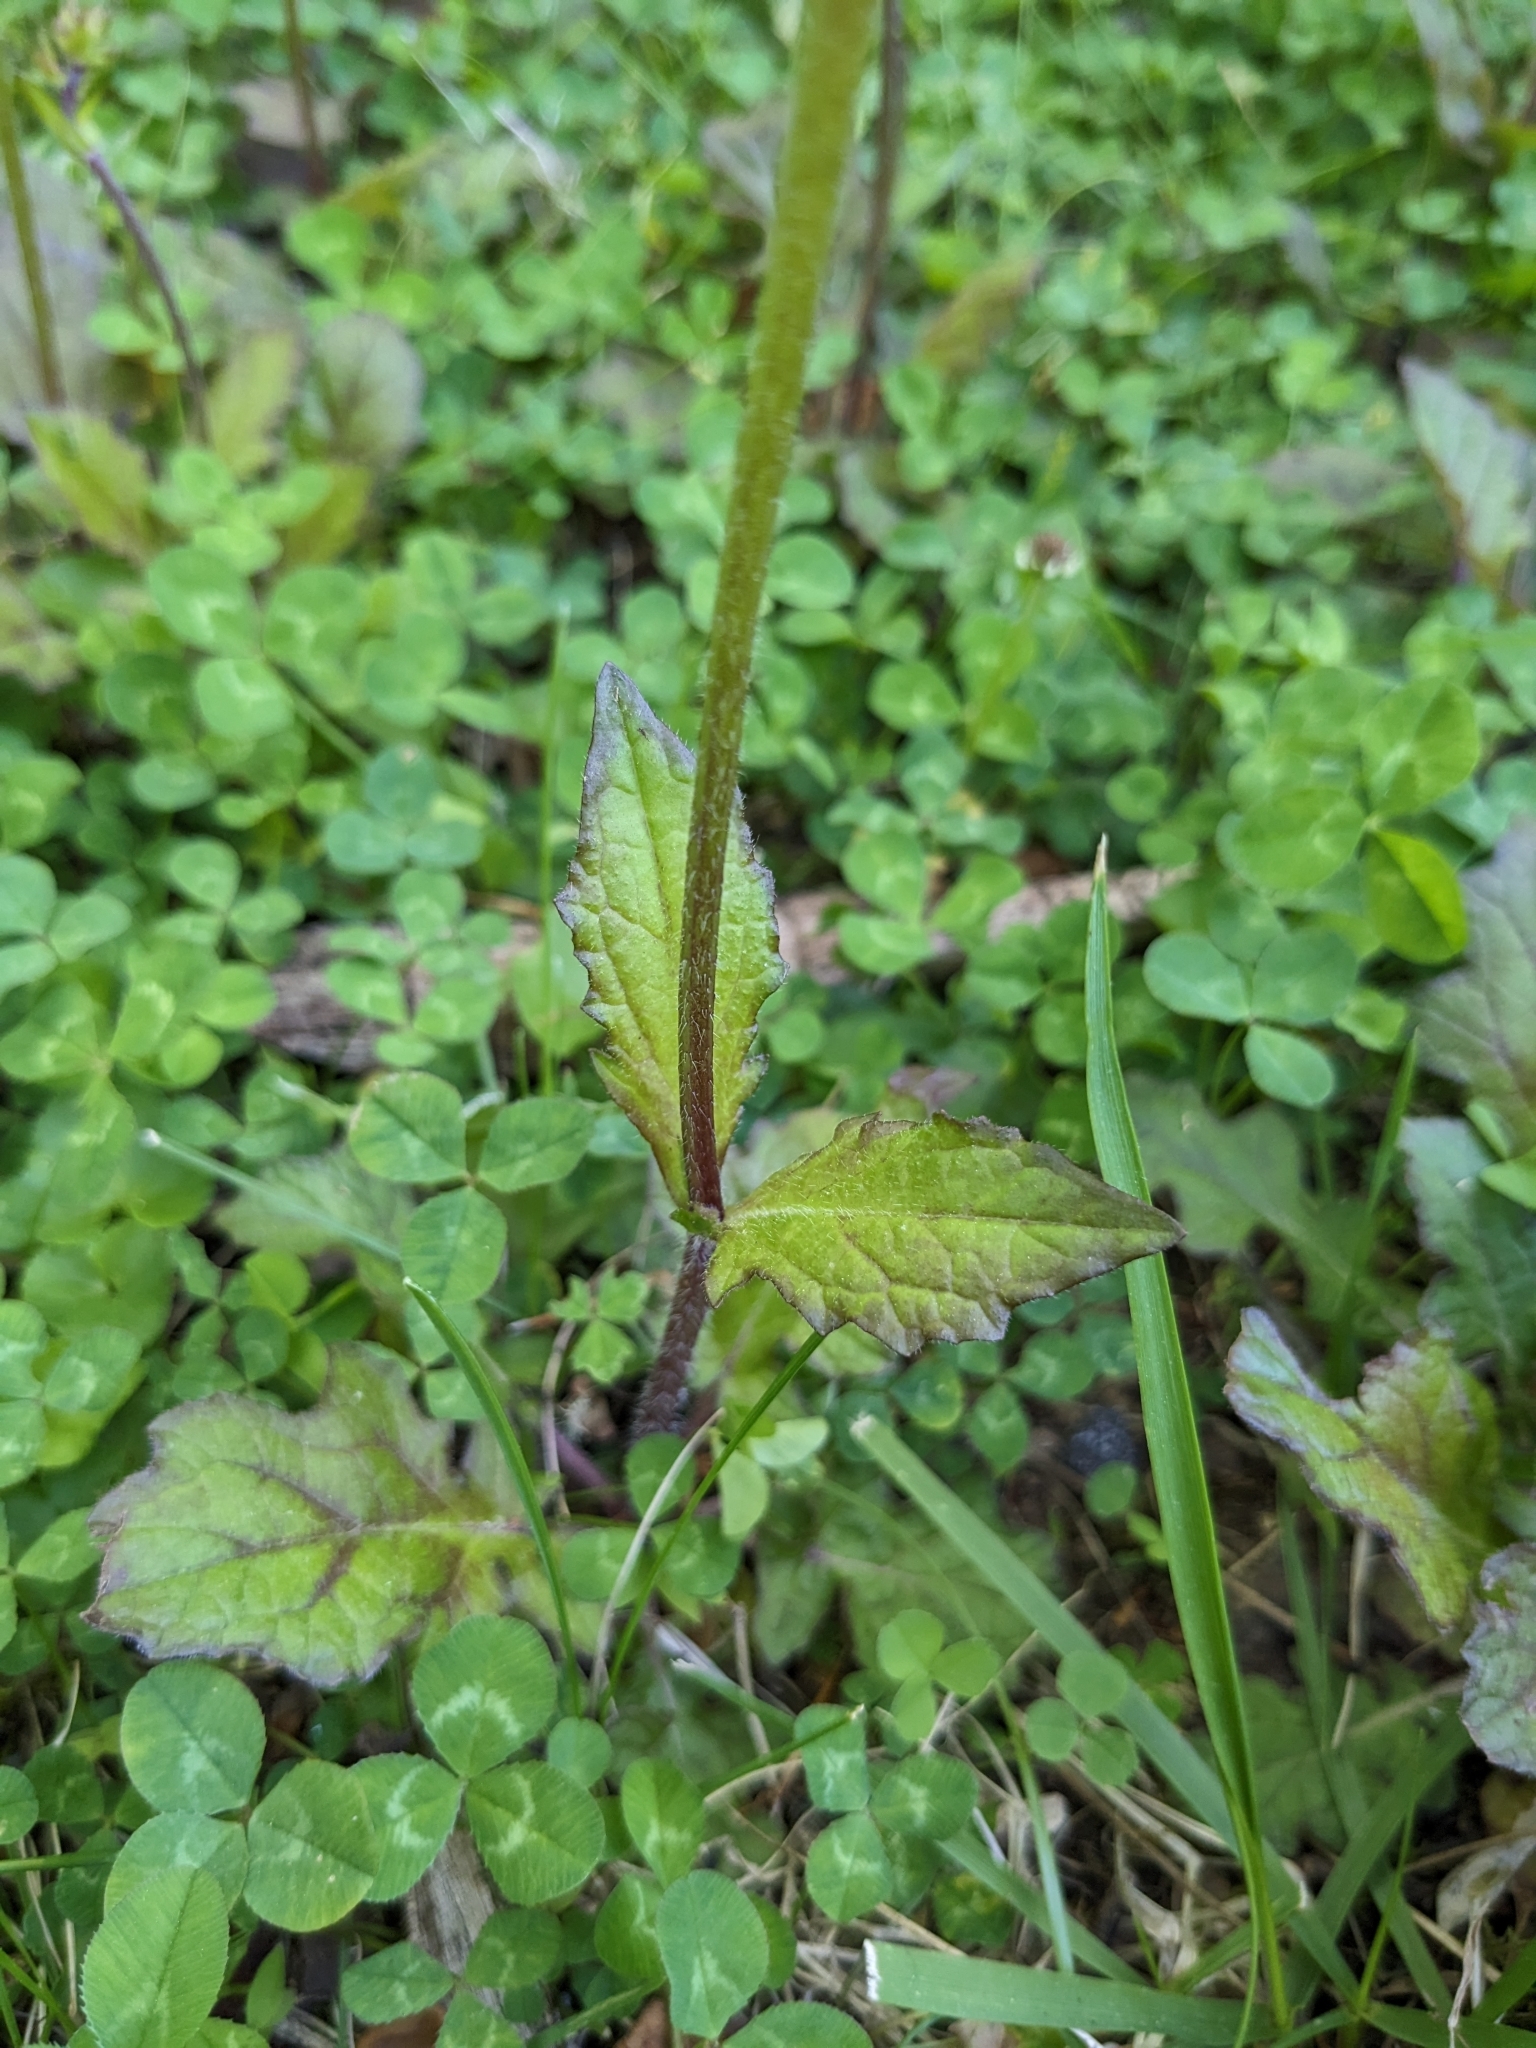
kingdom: Plantae
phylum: Tracheophyta
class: Magnoliopsida
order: Lamiales
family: Lamiaceae
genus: Salvia
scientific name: Salvia lyrata
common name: Cancerweed
